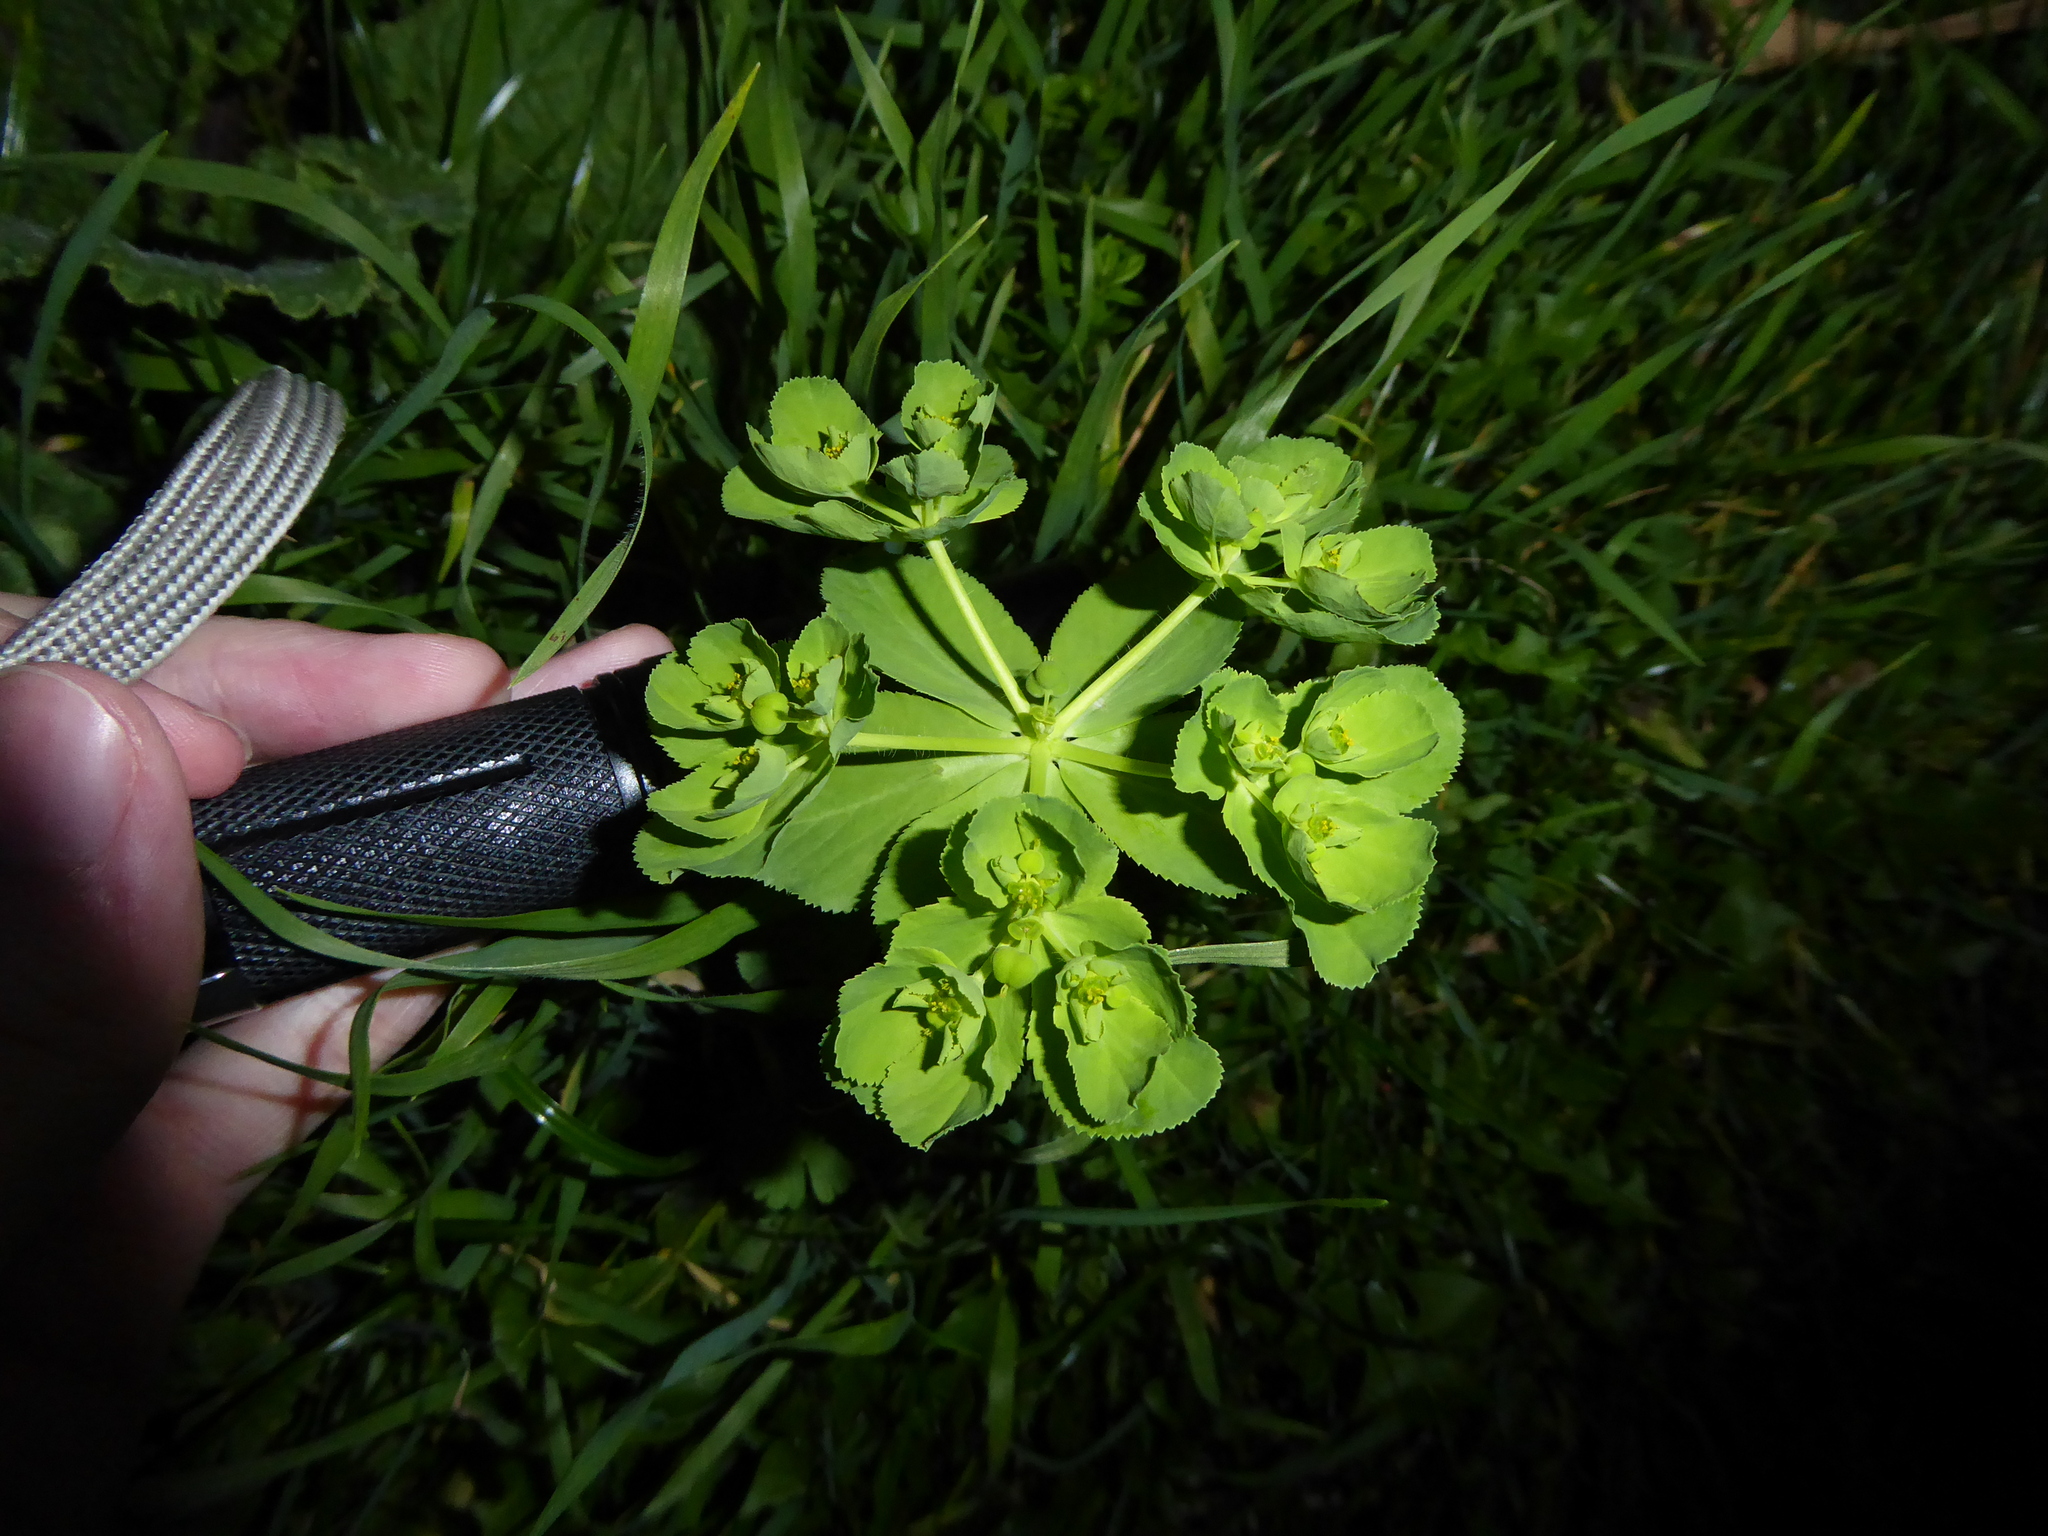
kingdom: Plantae
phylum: Tracheophyta
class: Magnoliopsida
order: Malpighiales
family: Euphorbiaceae
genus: Euphorbia
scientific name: Euphorbia helioscopia
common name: Sun spurge
